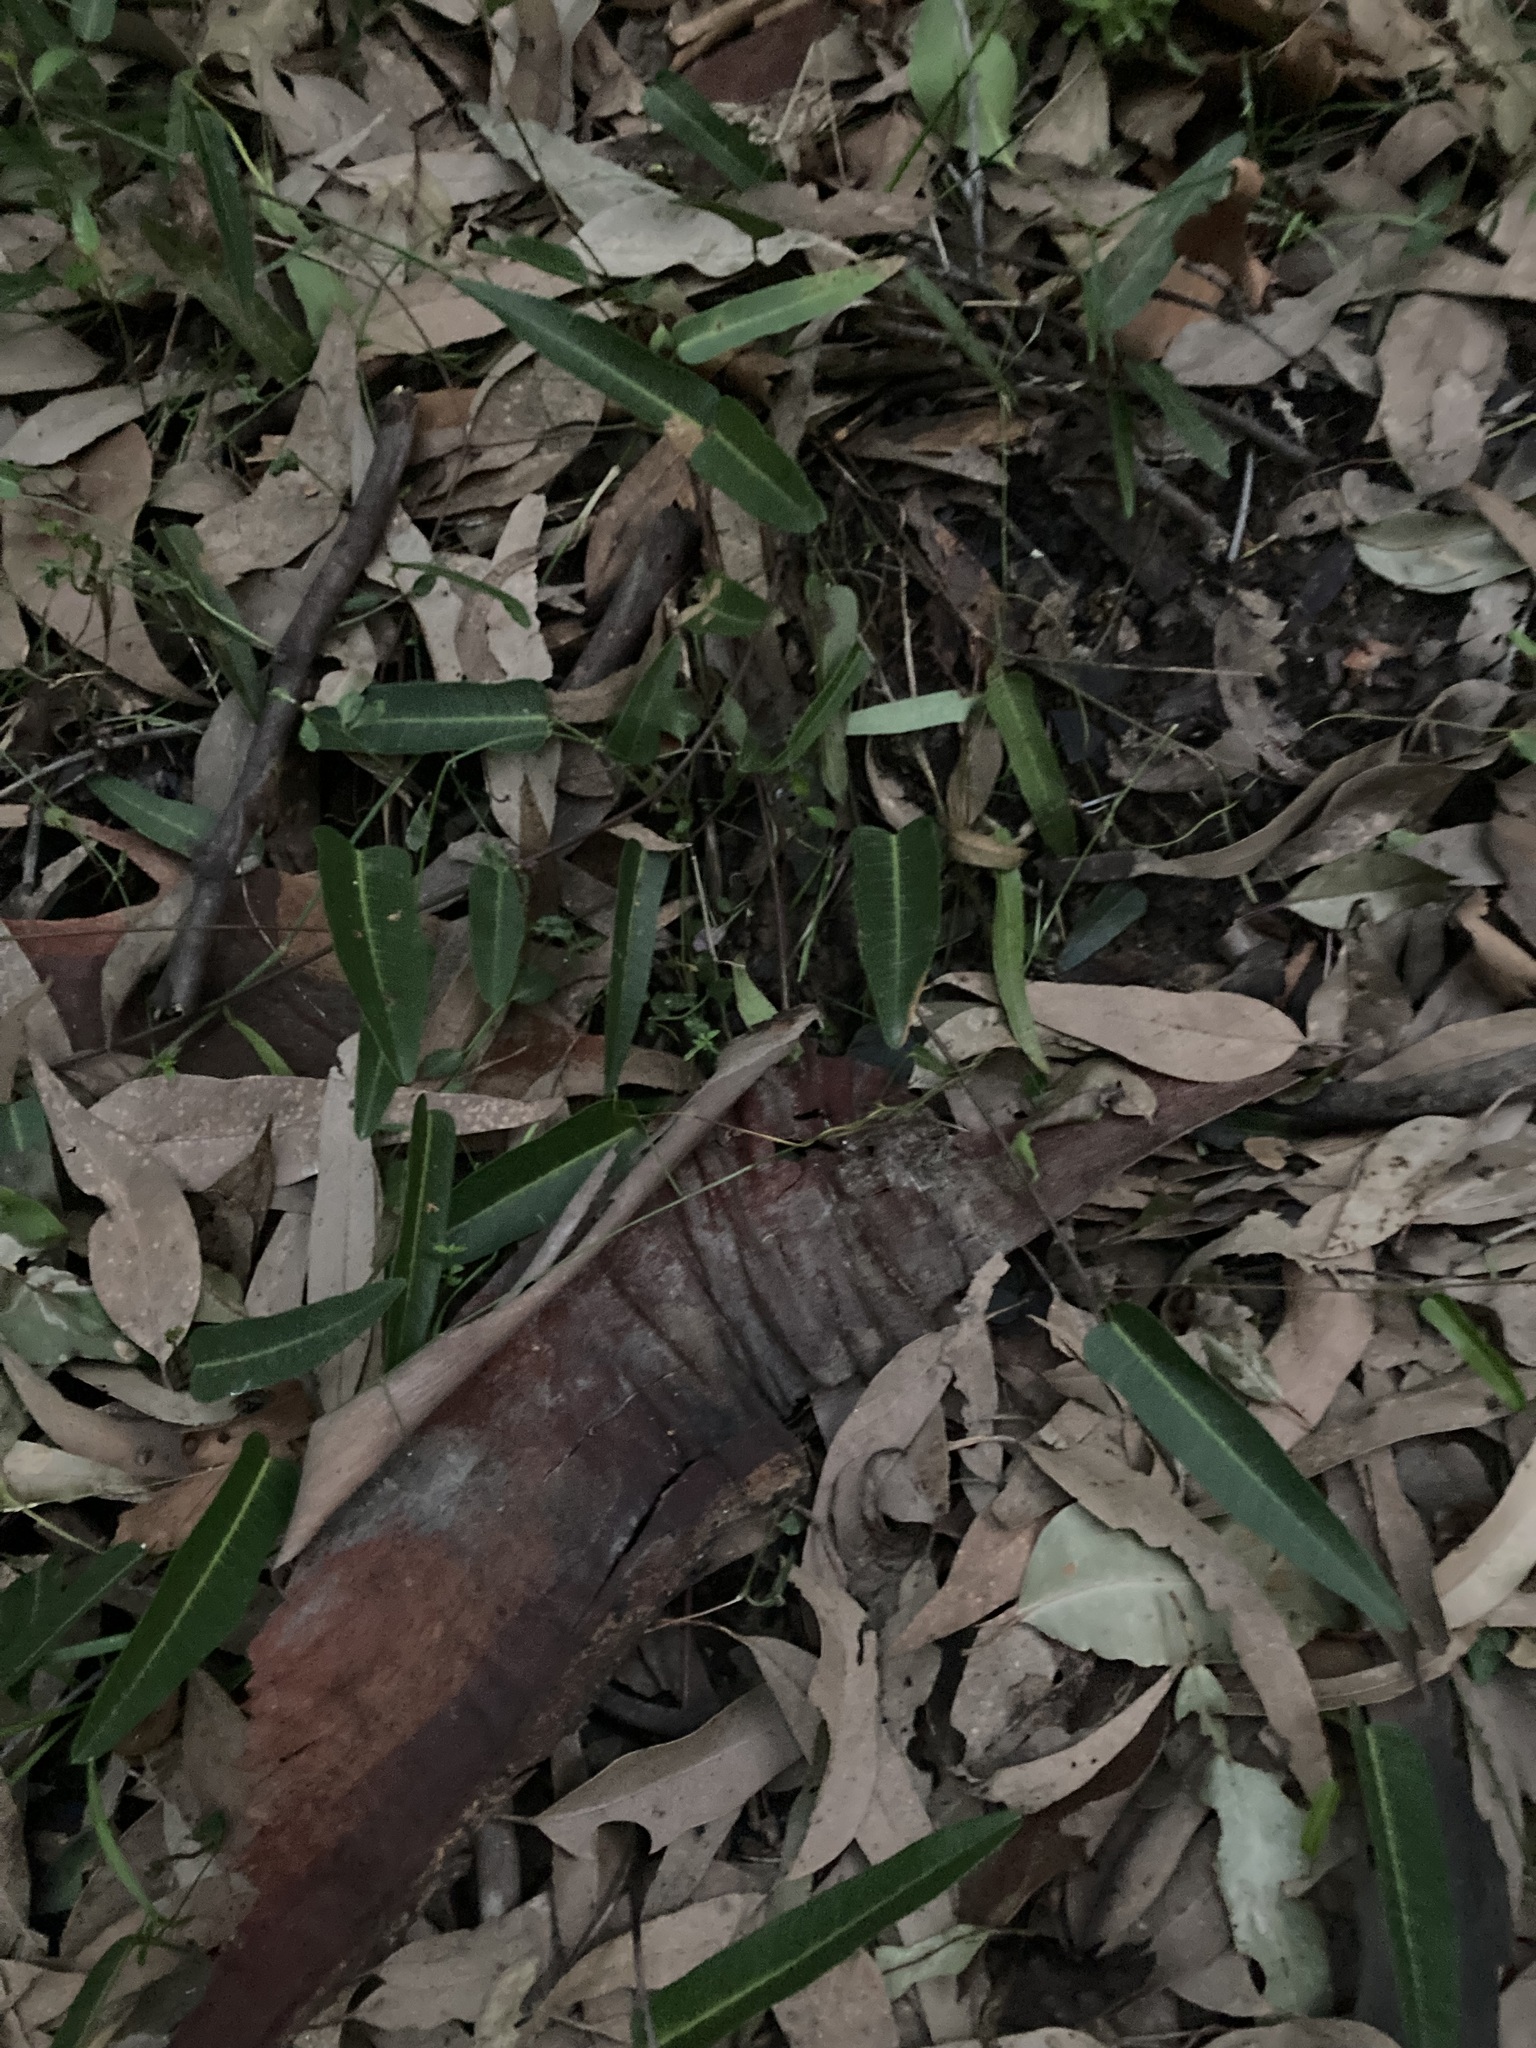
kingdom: Plantae
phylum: Tracheophyta
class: Magnoliopsida
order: Fabales
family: Fabaceae
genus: Hardenbergia
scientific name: Hardenbergia violacea
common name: Coral-pea
